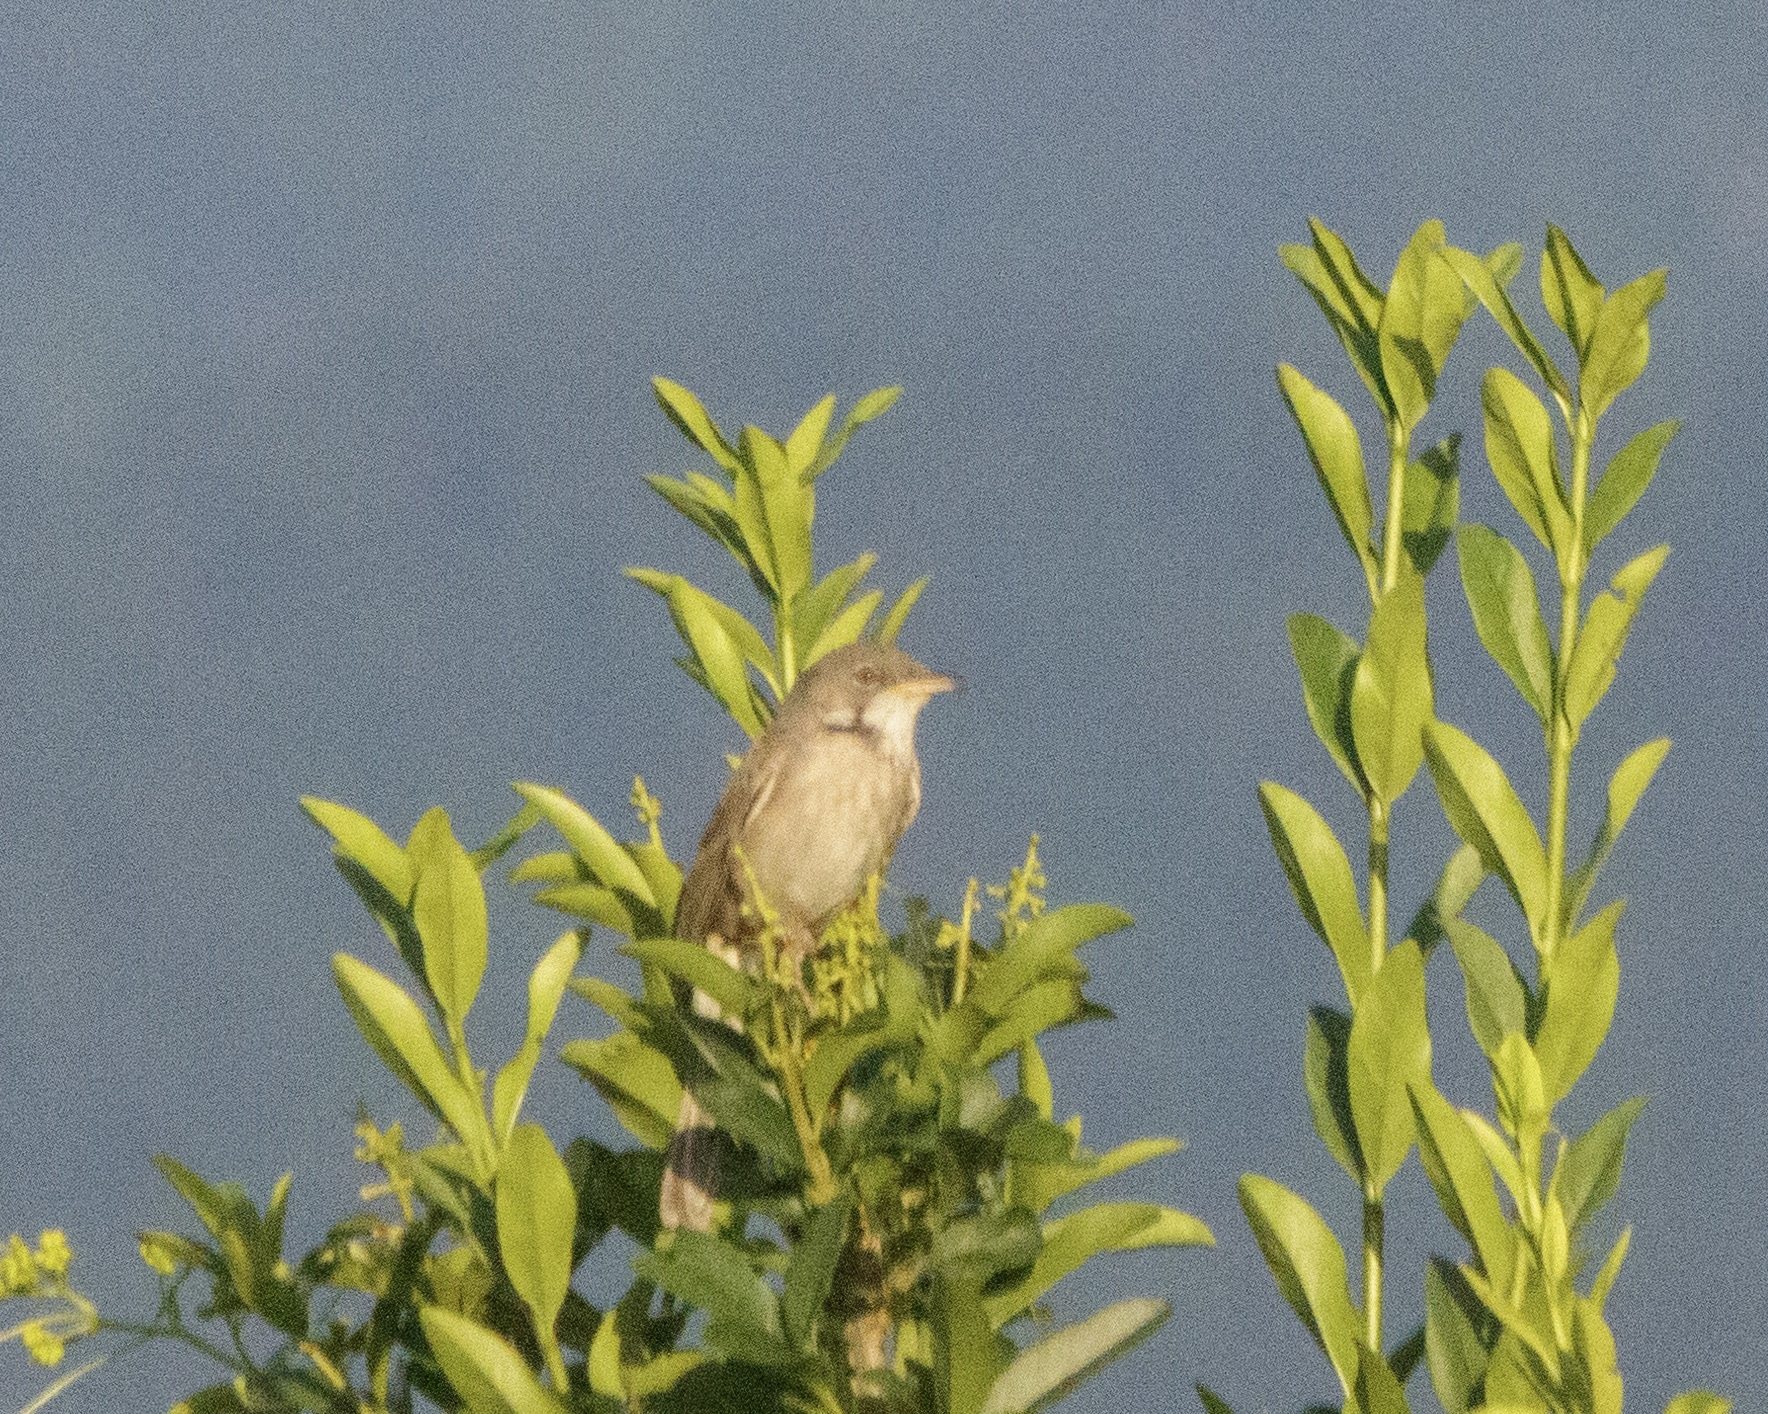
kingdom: Animalia
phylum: Chordata
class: Aves
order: Passeriformes
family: Sylviidae
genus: Sylvia
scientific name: Sylvia communis
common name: Common whitethroat
